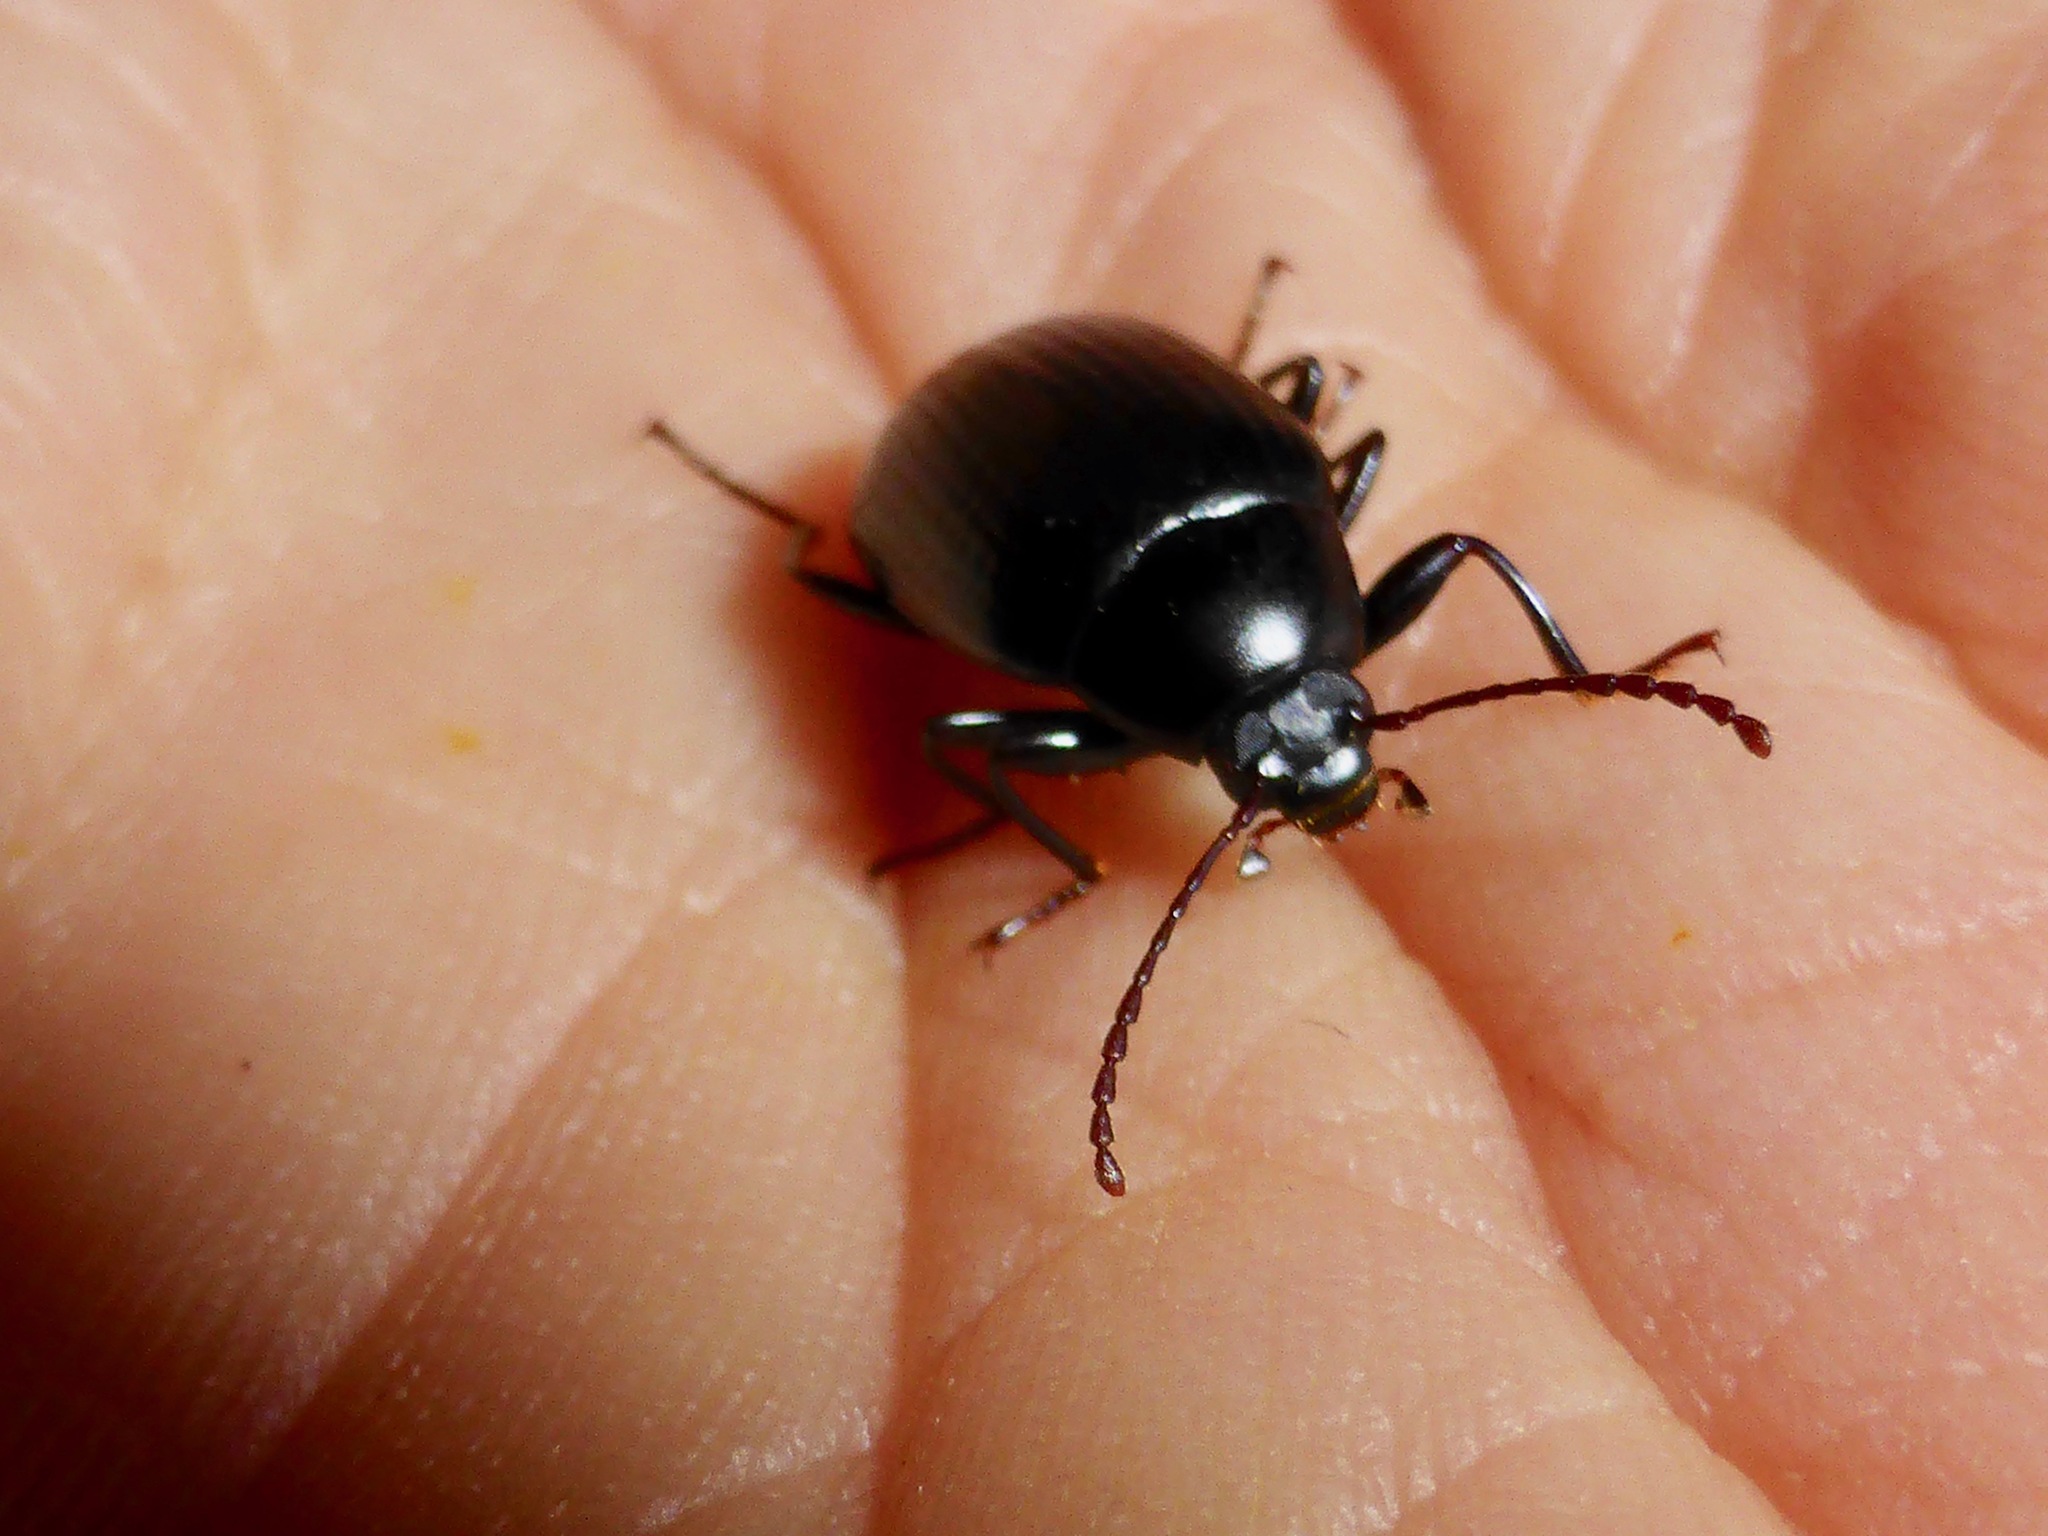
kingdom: Animalia
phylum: Arthropoda
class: Insecta
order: Coleoptera
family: Tenebrionidae
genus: Amarygmus
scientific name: Amarygmus
